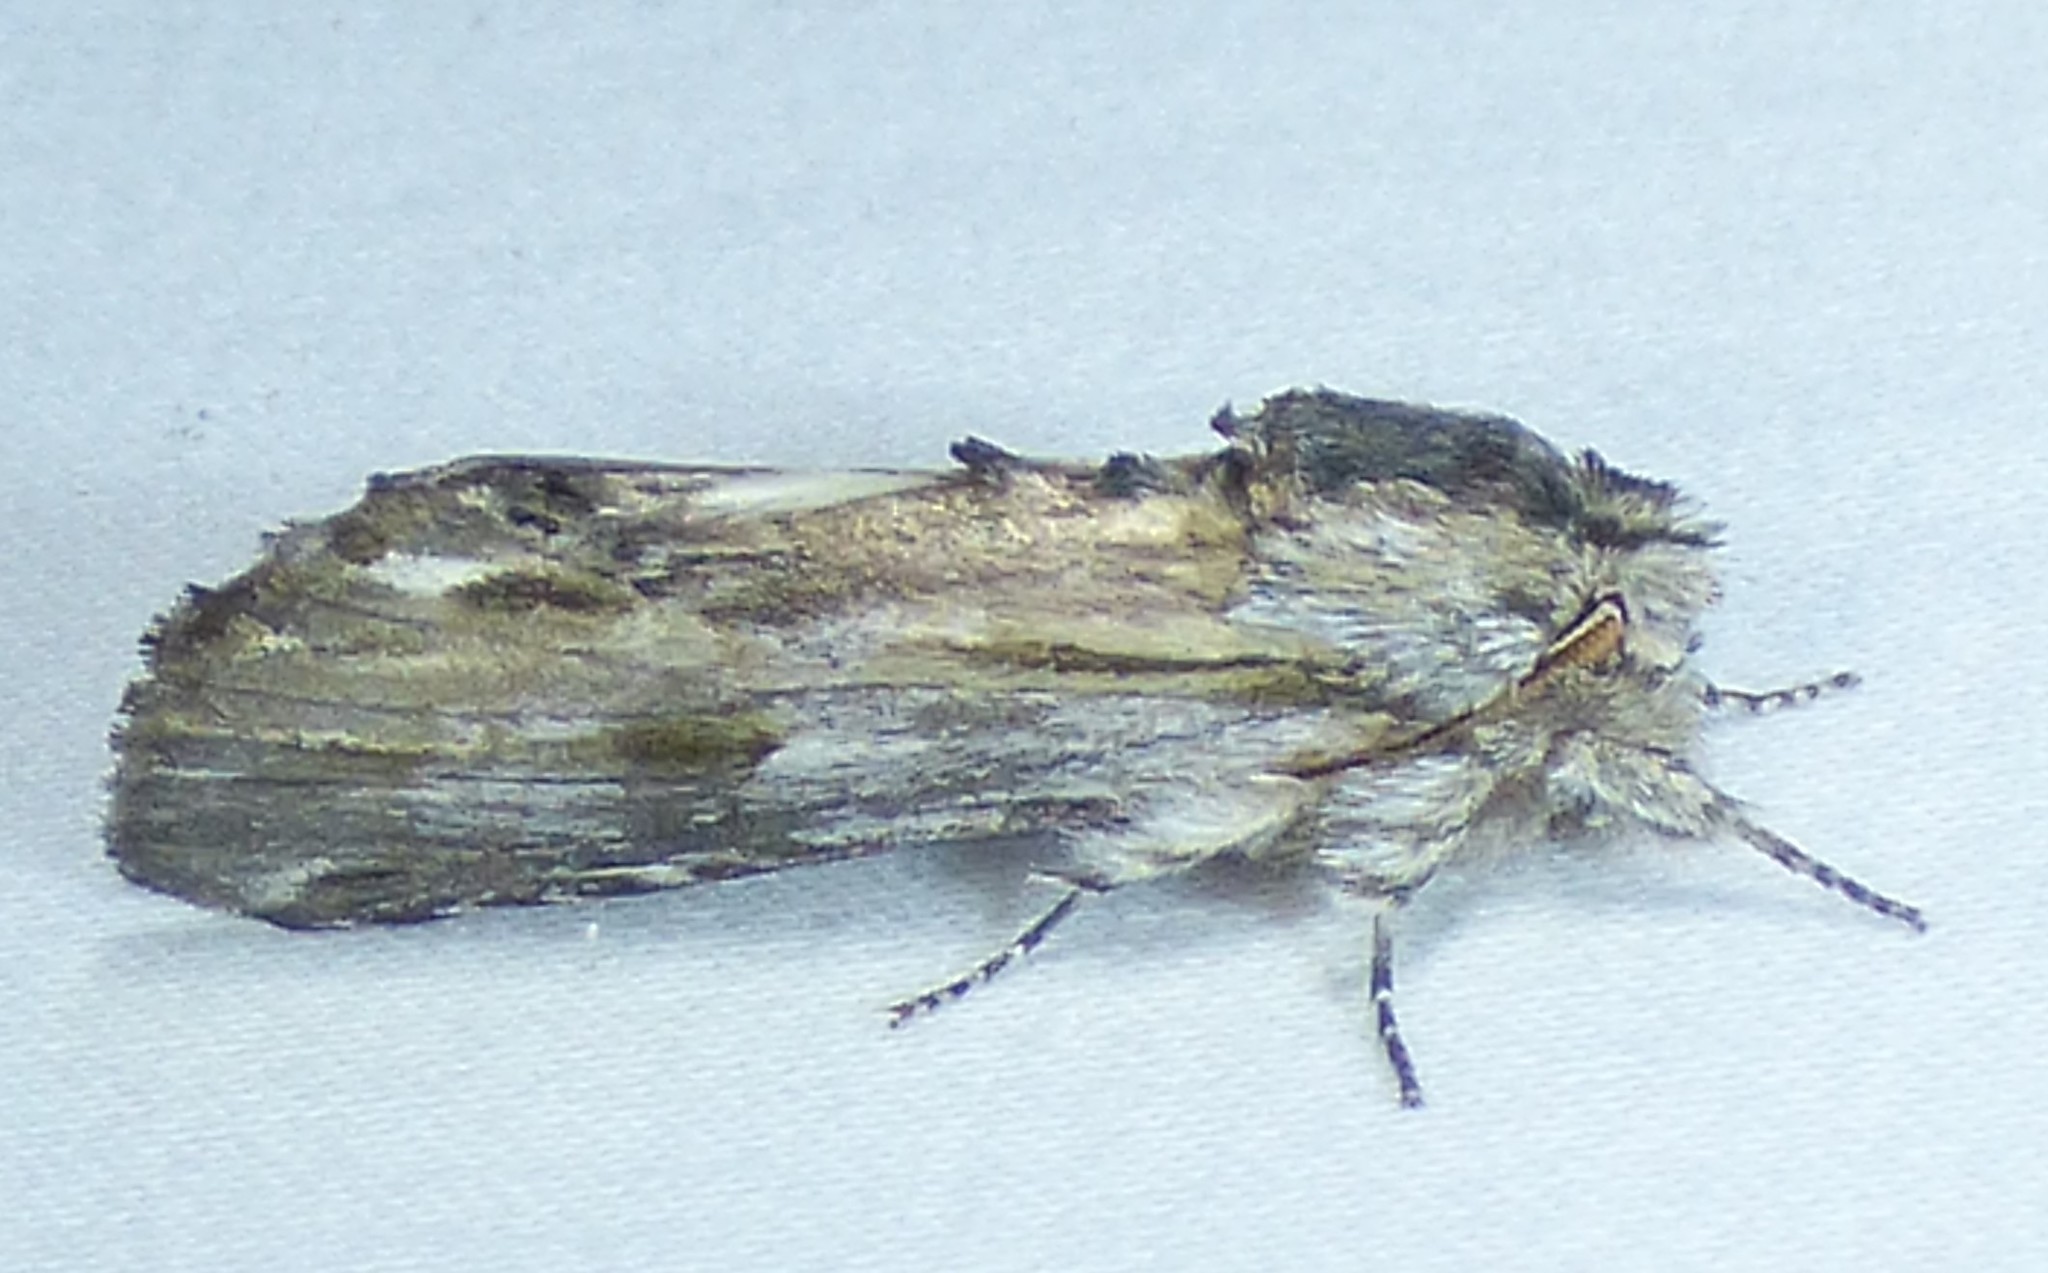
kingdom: Animalia
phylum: Arthropoda
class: Insecta
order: Lepidoptera
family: Notodontidae
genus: Oligocentria
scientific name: Oligocentria Ianassa lignicolor
